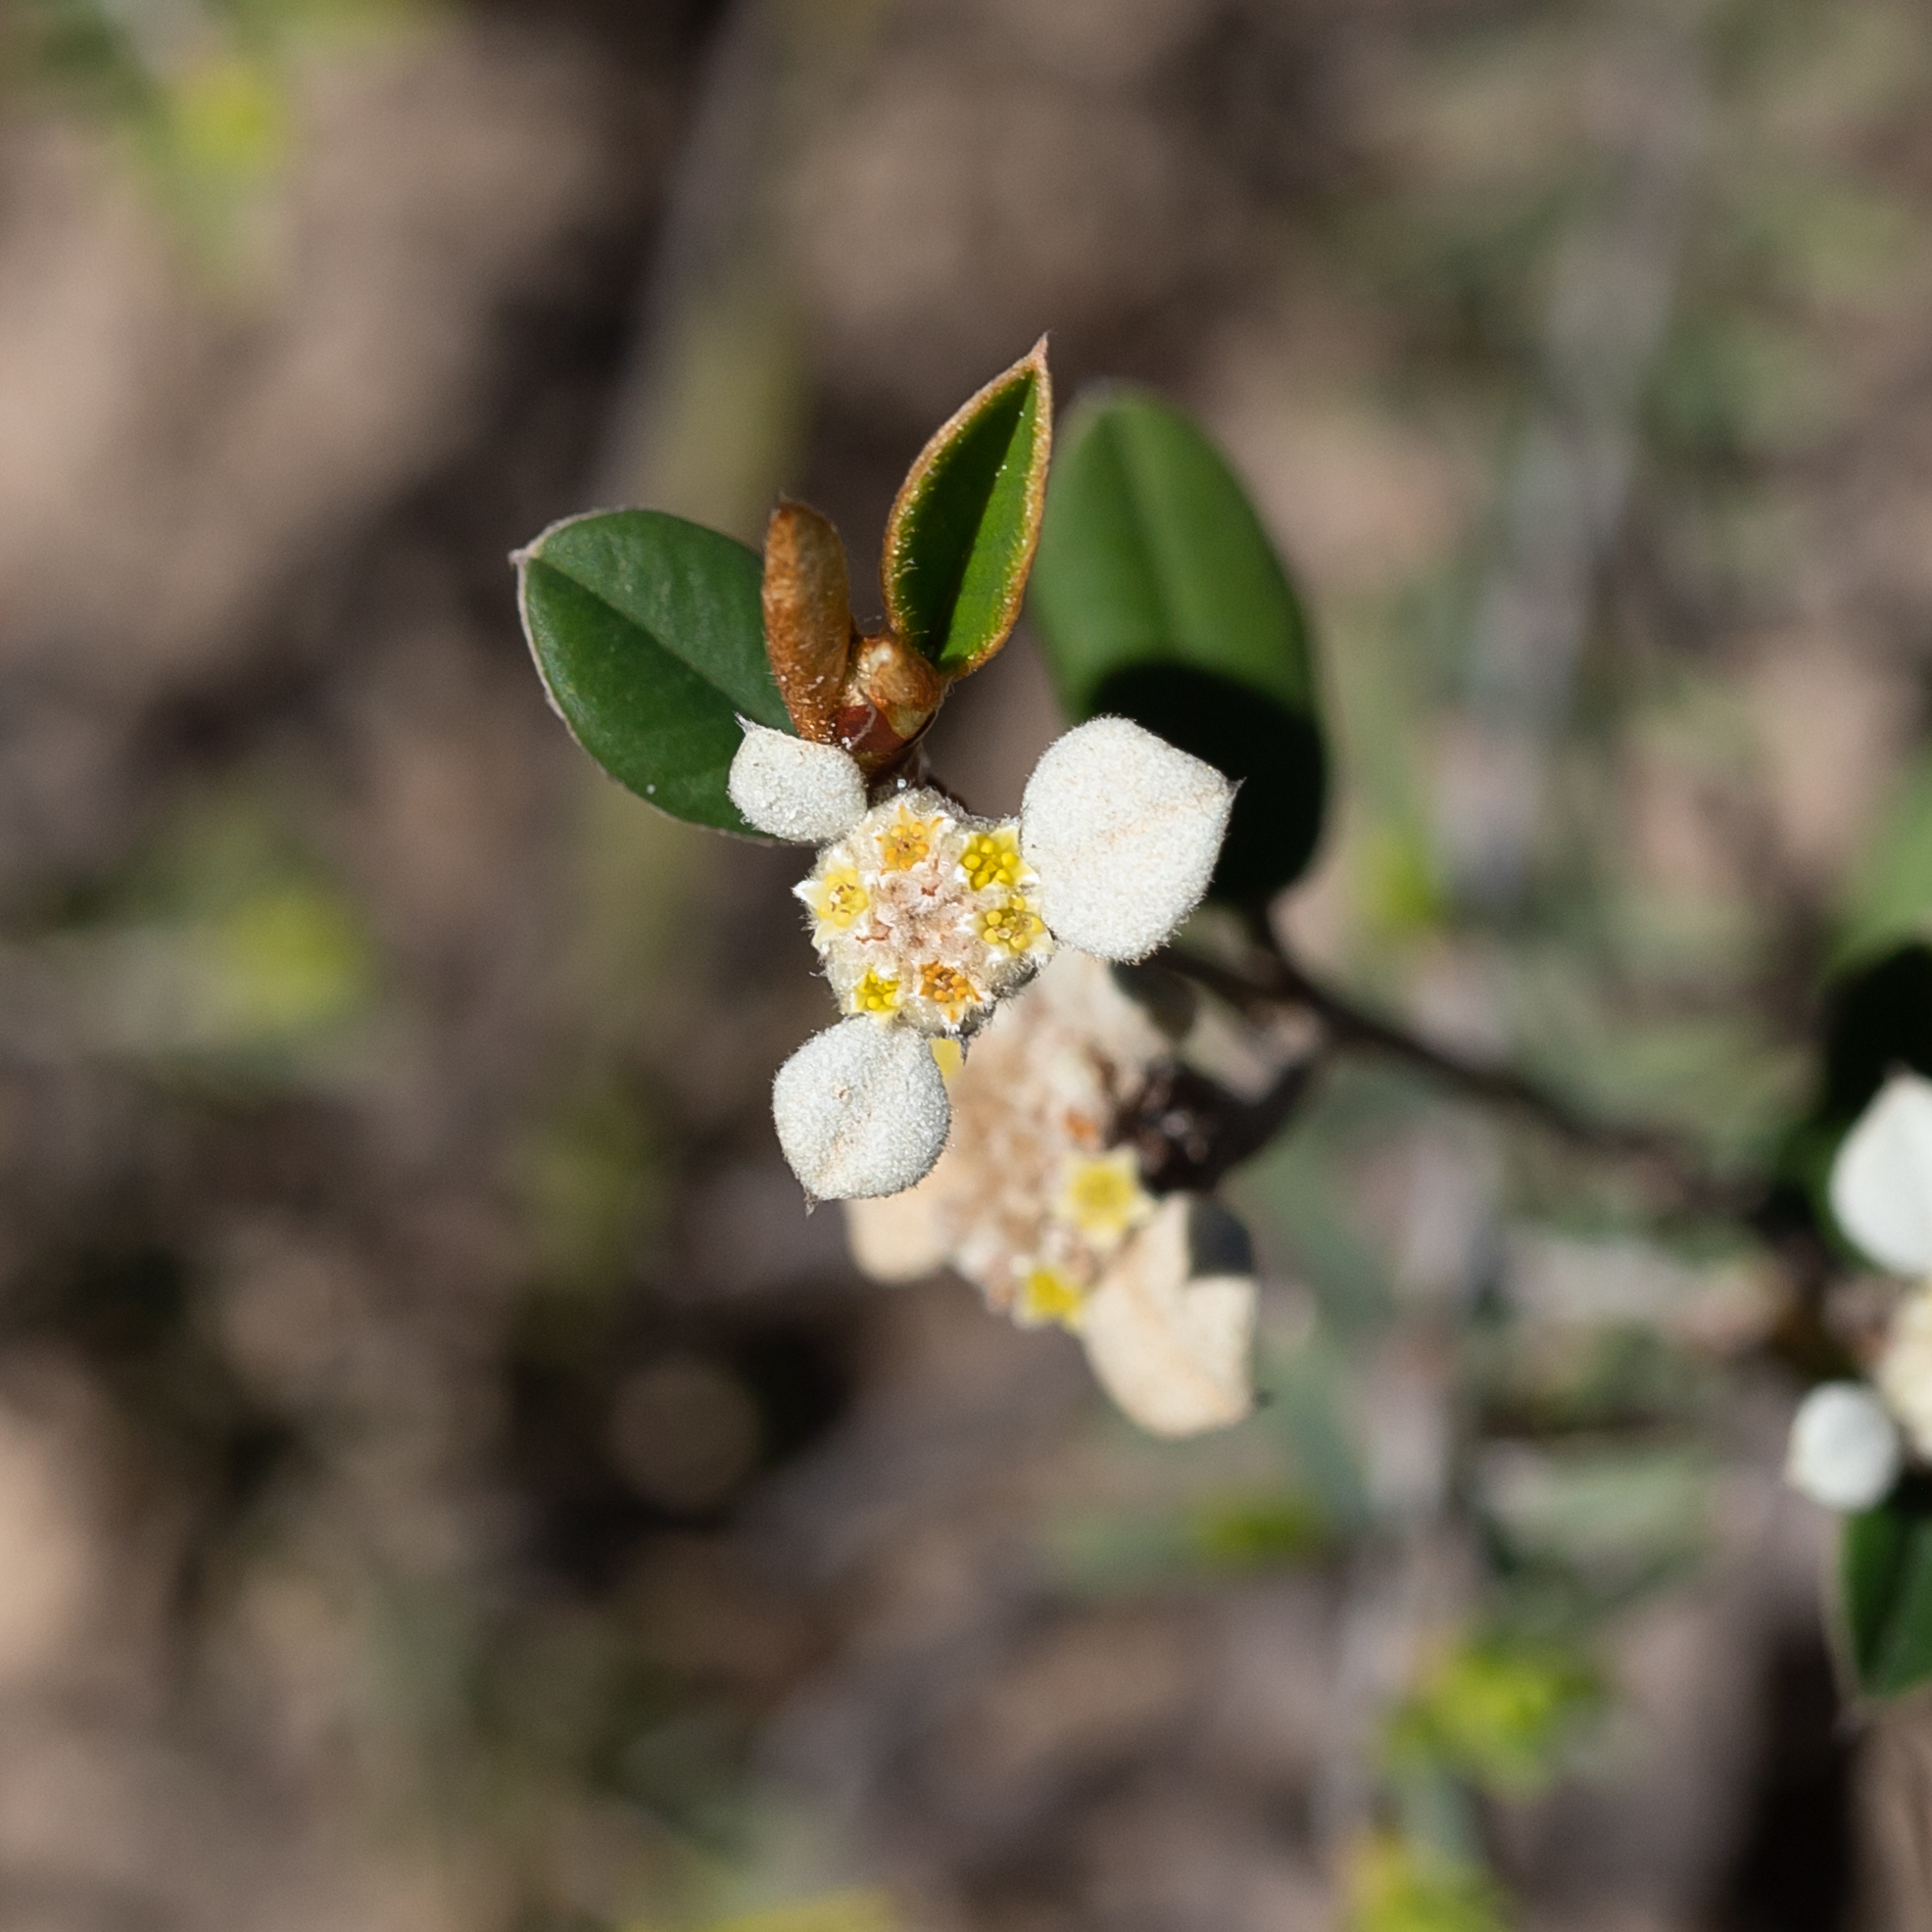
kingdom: Plantae
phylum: Tracheophyta
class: Magnoliopsida
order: Rosales
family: Rhamnaceae
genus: Spyridium
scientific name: Spyridium thymifolium
